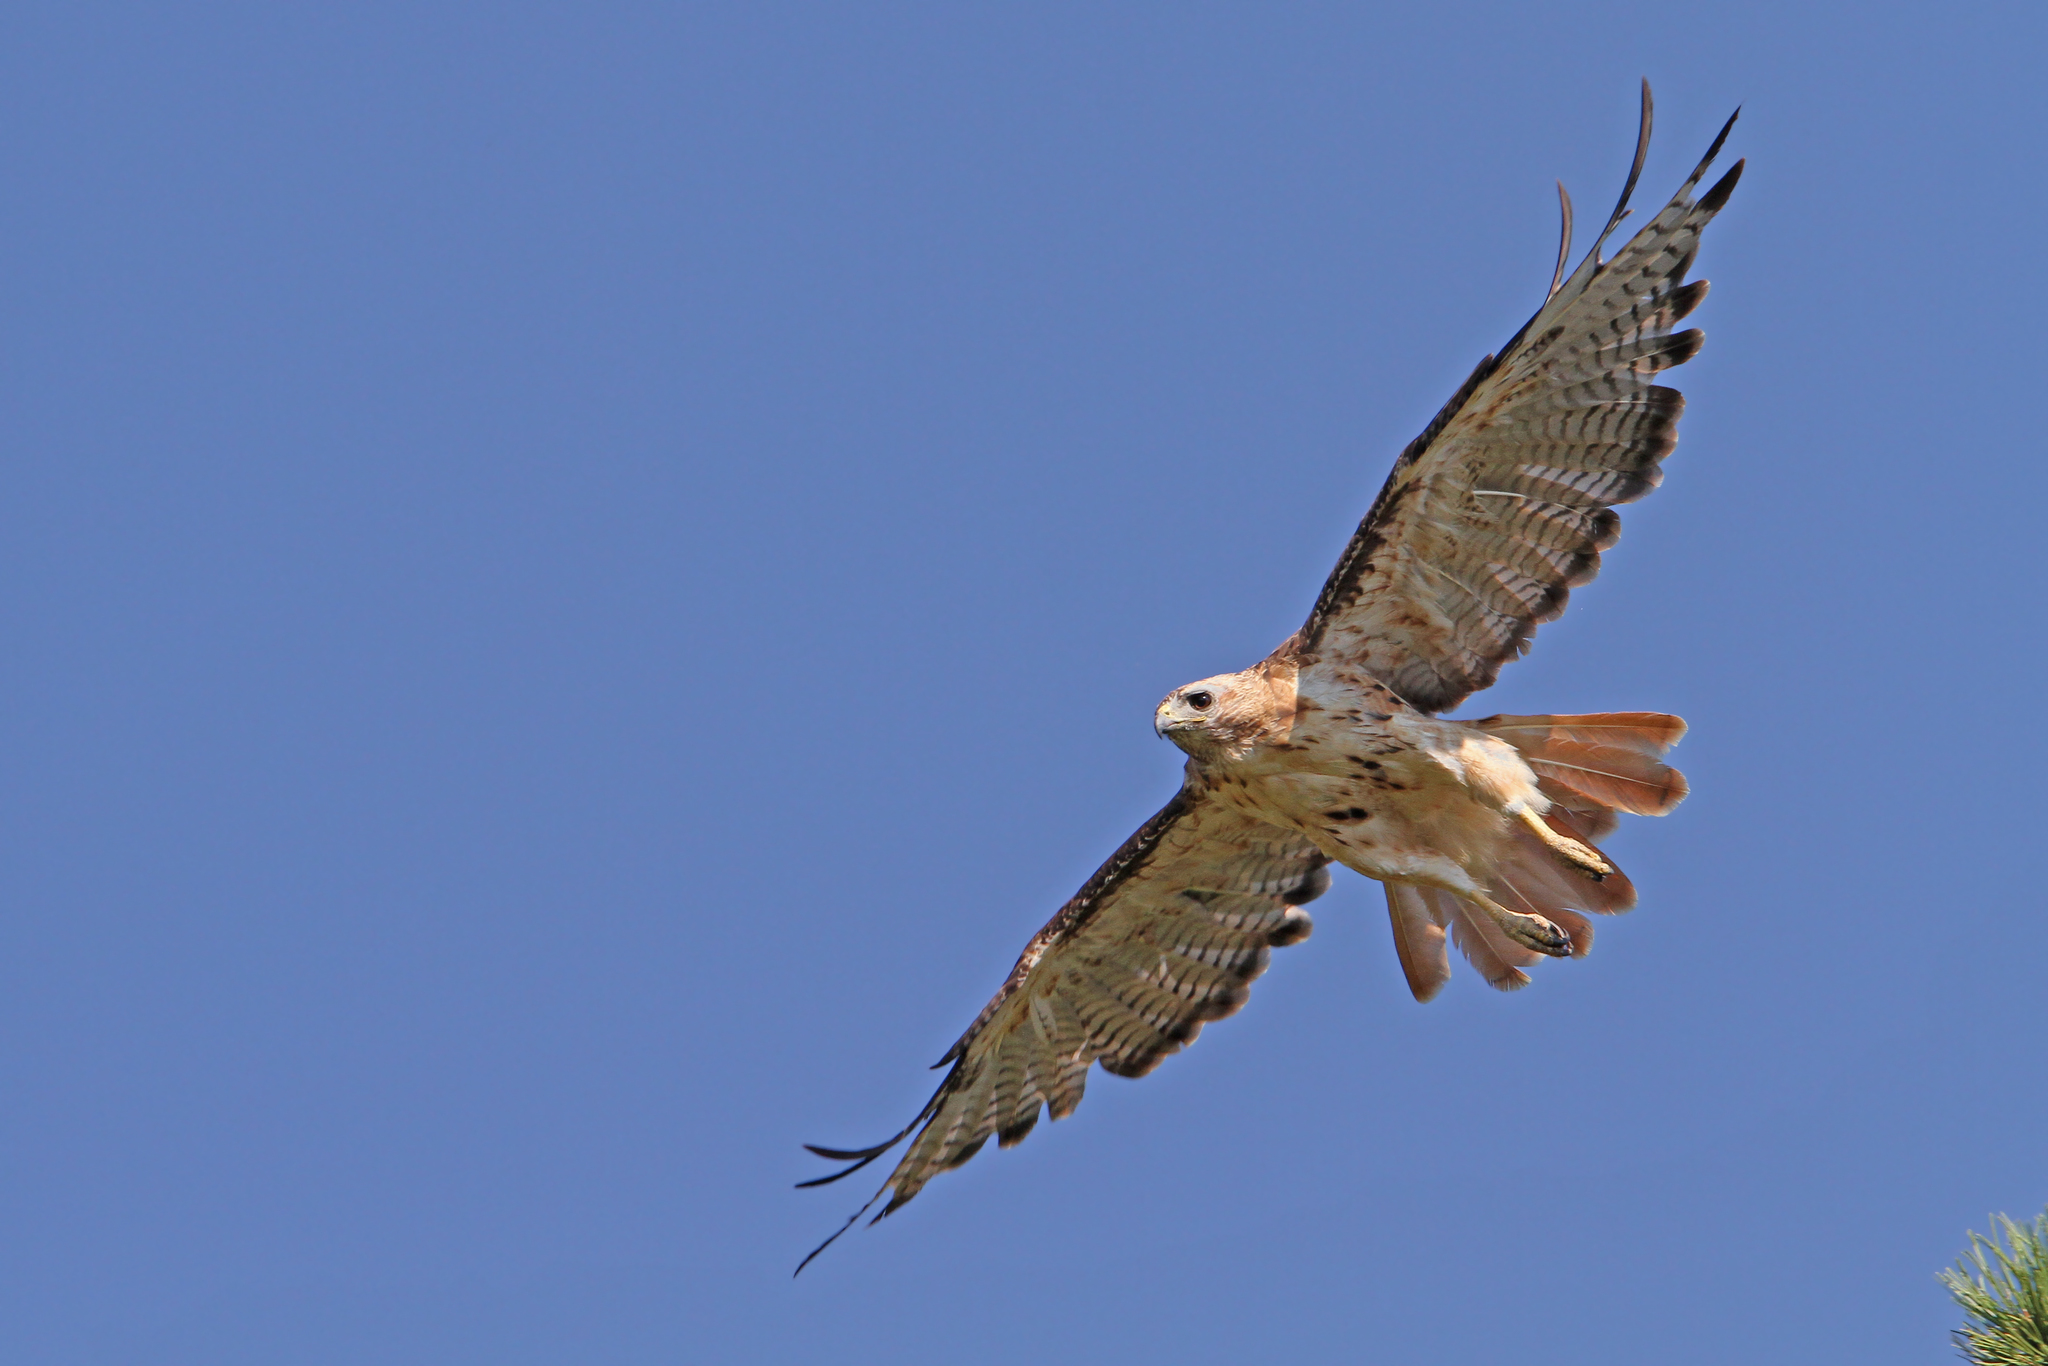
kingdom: Animalia
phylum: Chordata
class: Aves
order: Accipitriformes
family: Accipitridae
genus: Buteo
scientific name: Buteo jamaicensis
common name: Red-tailed hawk
